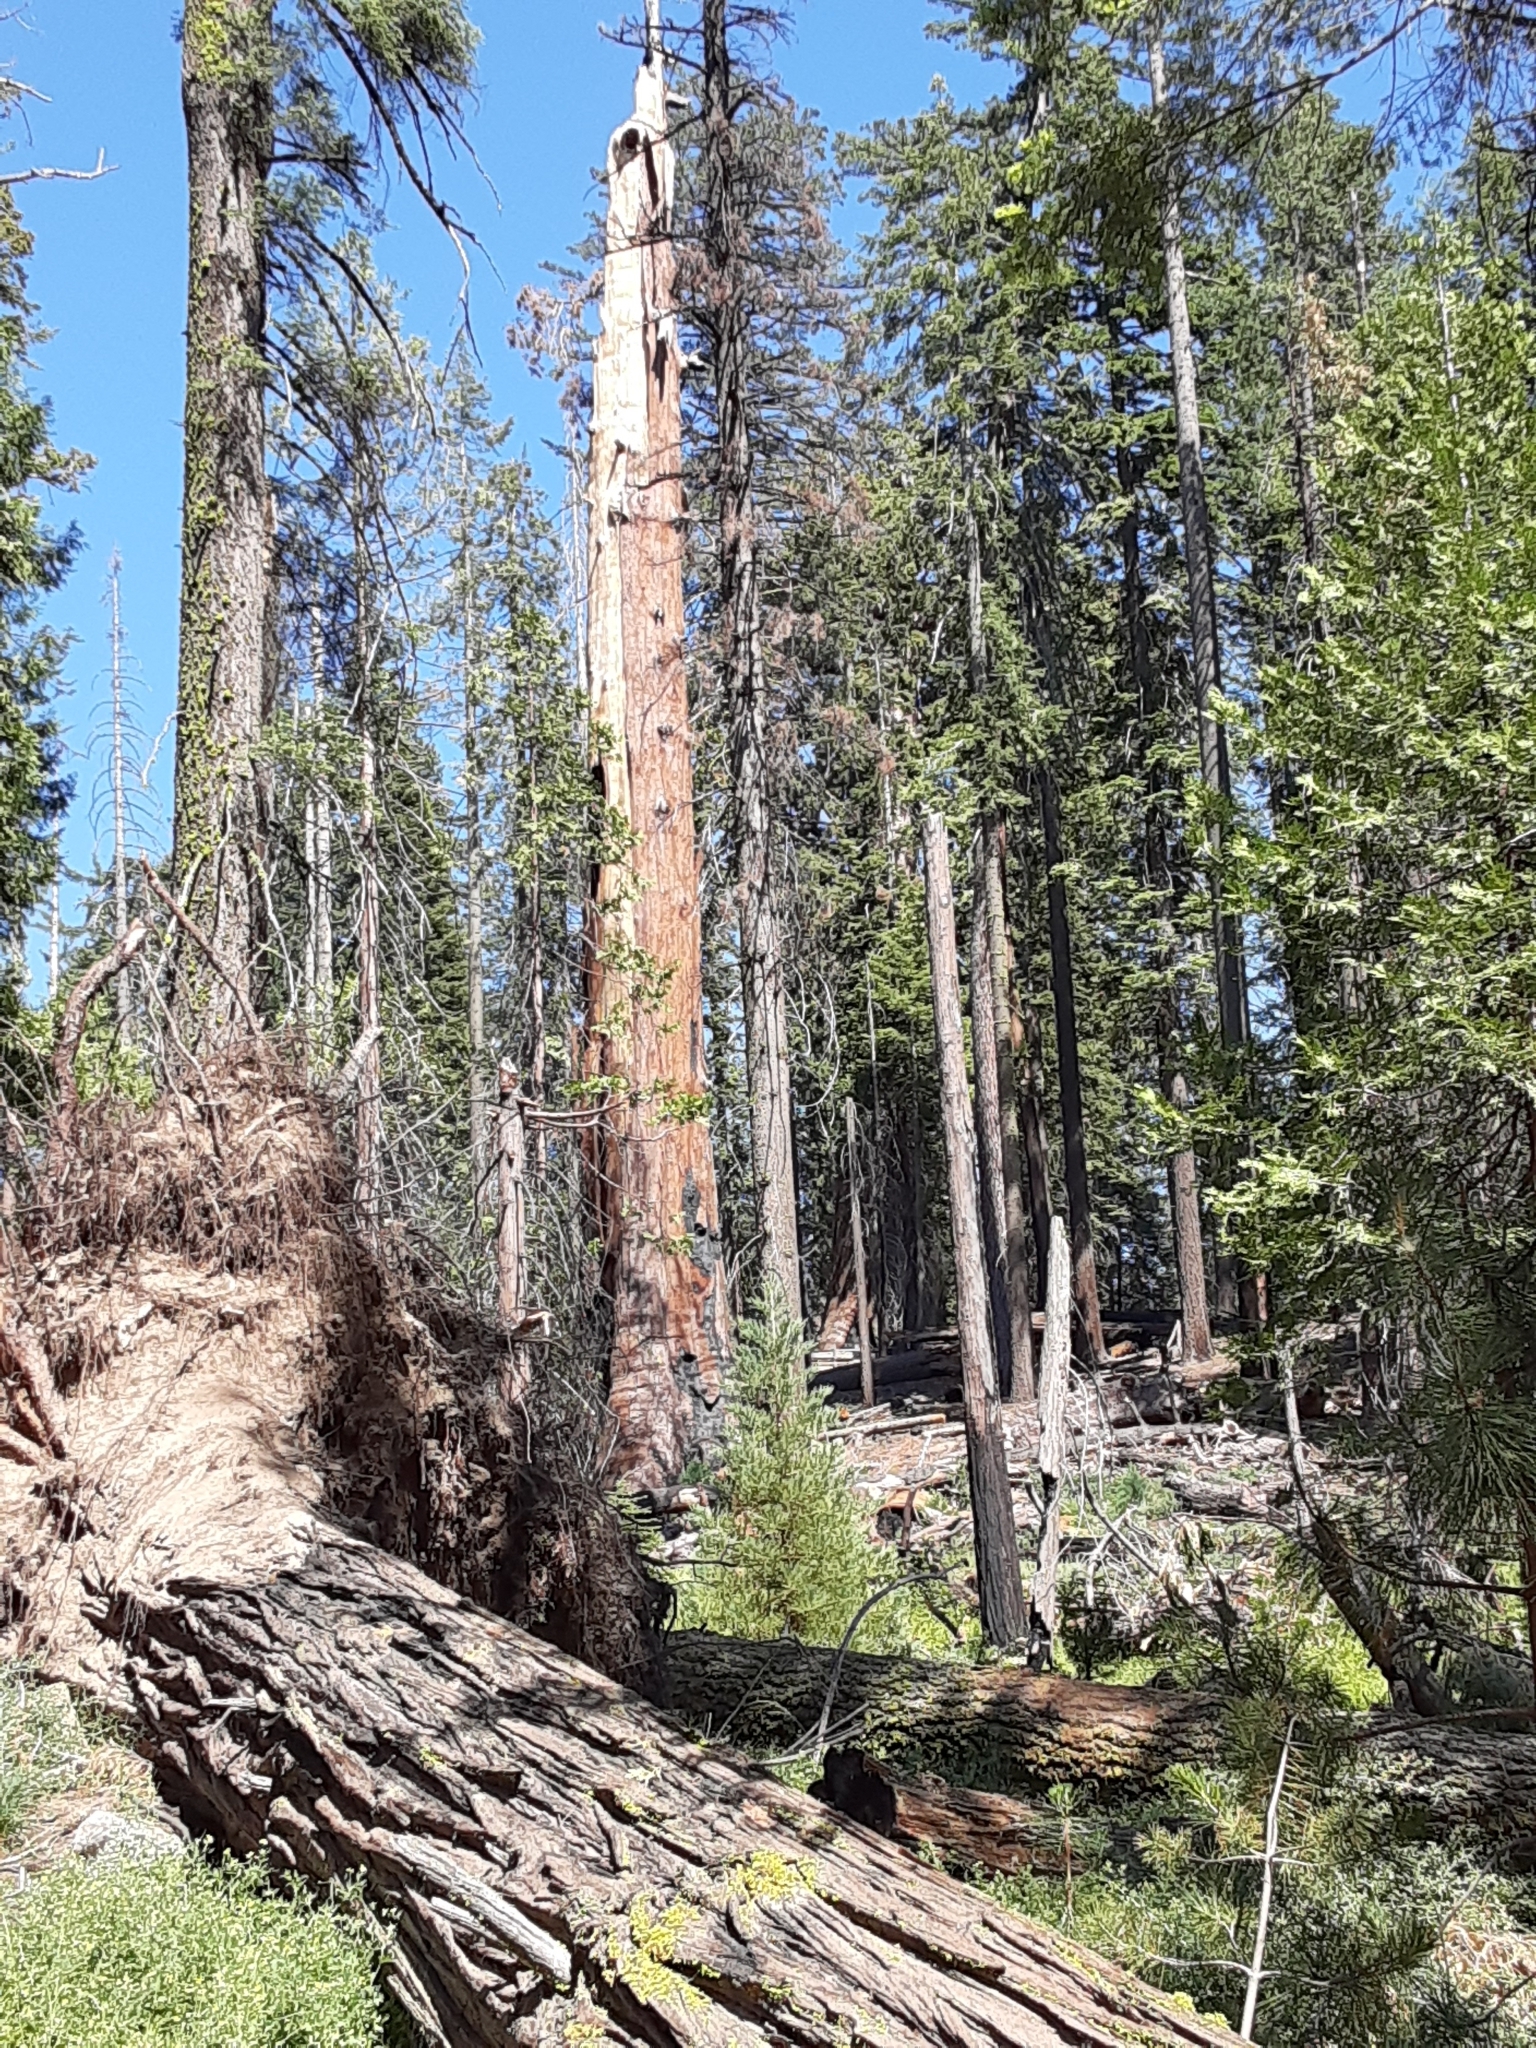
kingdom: Plantae
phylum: Tracheophyta
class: Pinopsida
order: Pinales
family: Cupressaceae
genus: Sequoiadendron
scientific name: Sequoiadendron giganteum
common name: Wellingtonia
